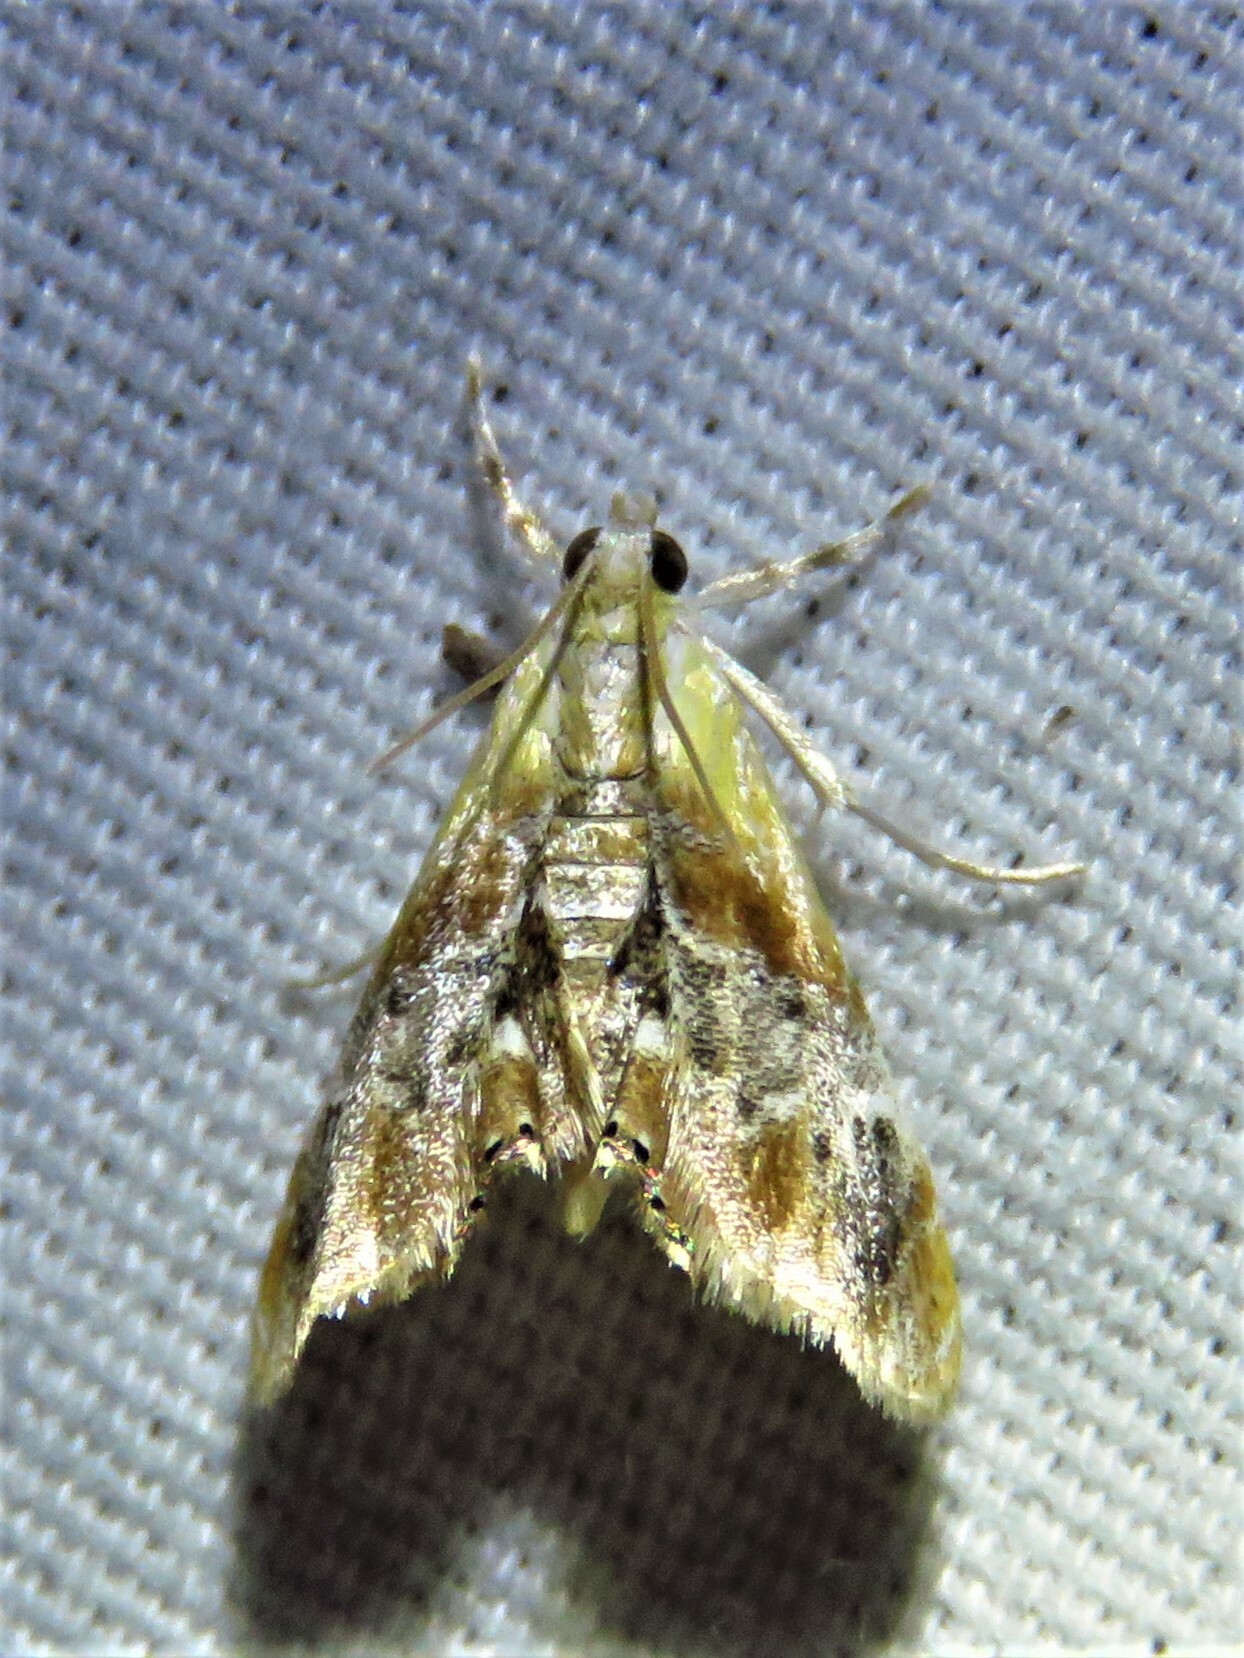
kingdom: Animalia
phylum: Arthropoda
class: Insecta
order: Lepidoptera
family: Crambidae
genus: Dicymolomia
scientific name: Dicymolomia julianalis
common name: Julia's dicymolomia moth
